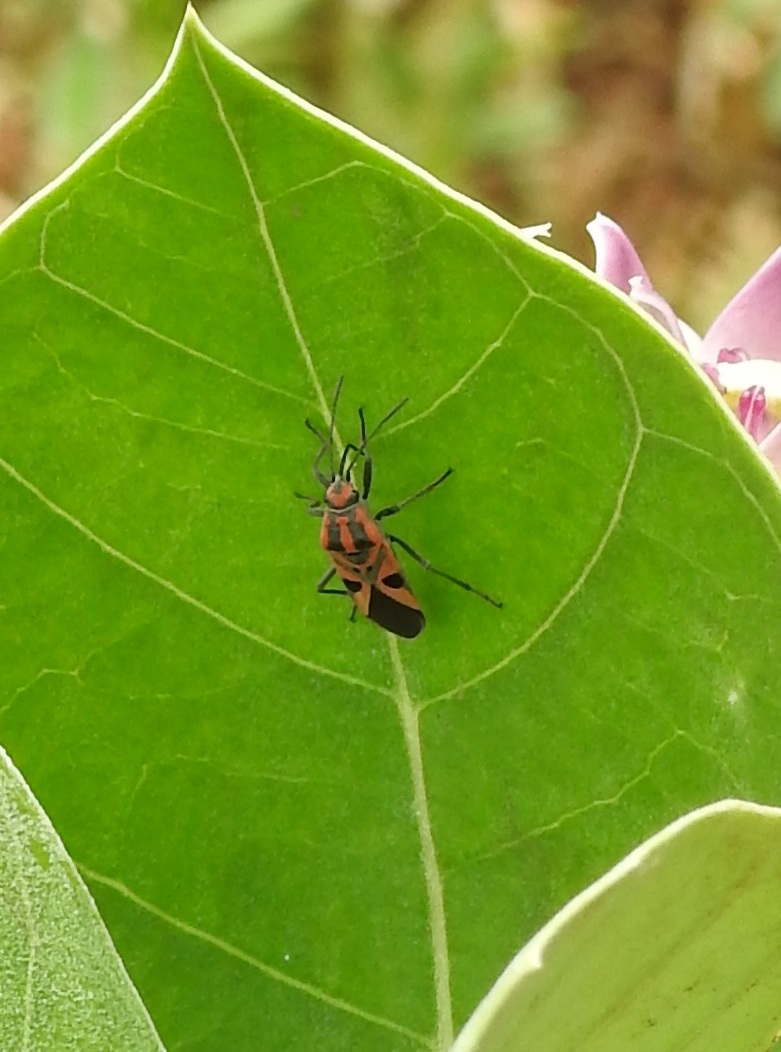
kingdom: Animalia
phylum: Arthropoda
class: Insecta
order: Hemiptera
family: Lygaeidae
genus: Spilostethus
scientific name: Spilostethus hospes
